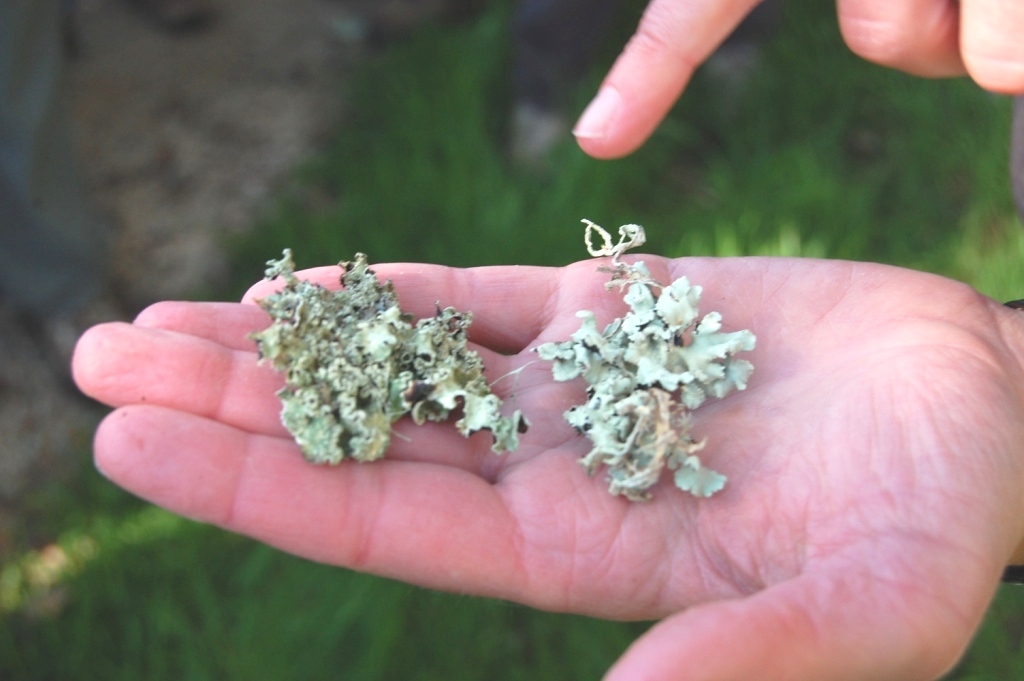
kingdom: Fungi
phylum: Ascomycota
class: Lecanoromycetes
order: Lecanorales
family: Parmeliaceae
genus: Flavoparmelia
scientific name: Flavoparmelia caperata
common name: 40-mile per hour lichen
